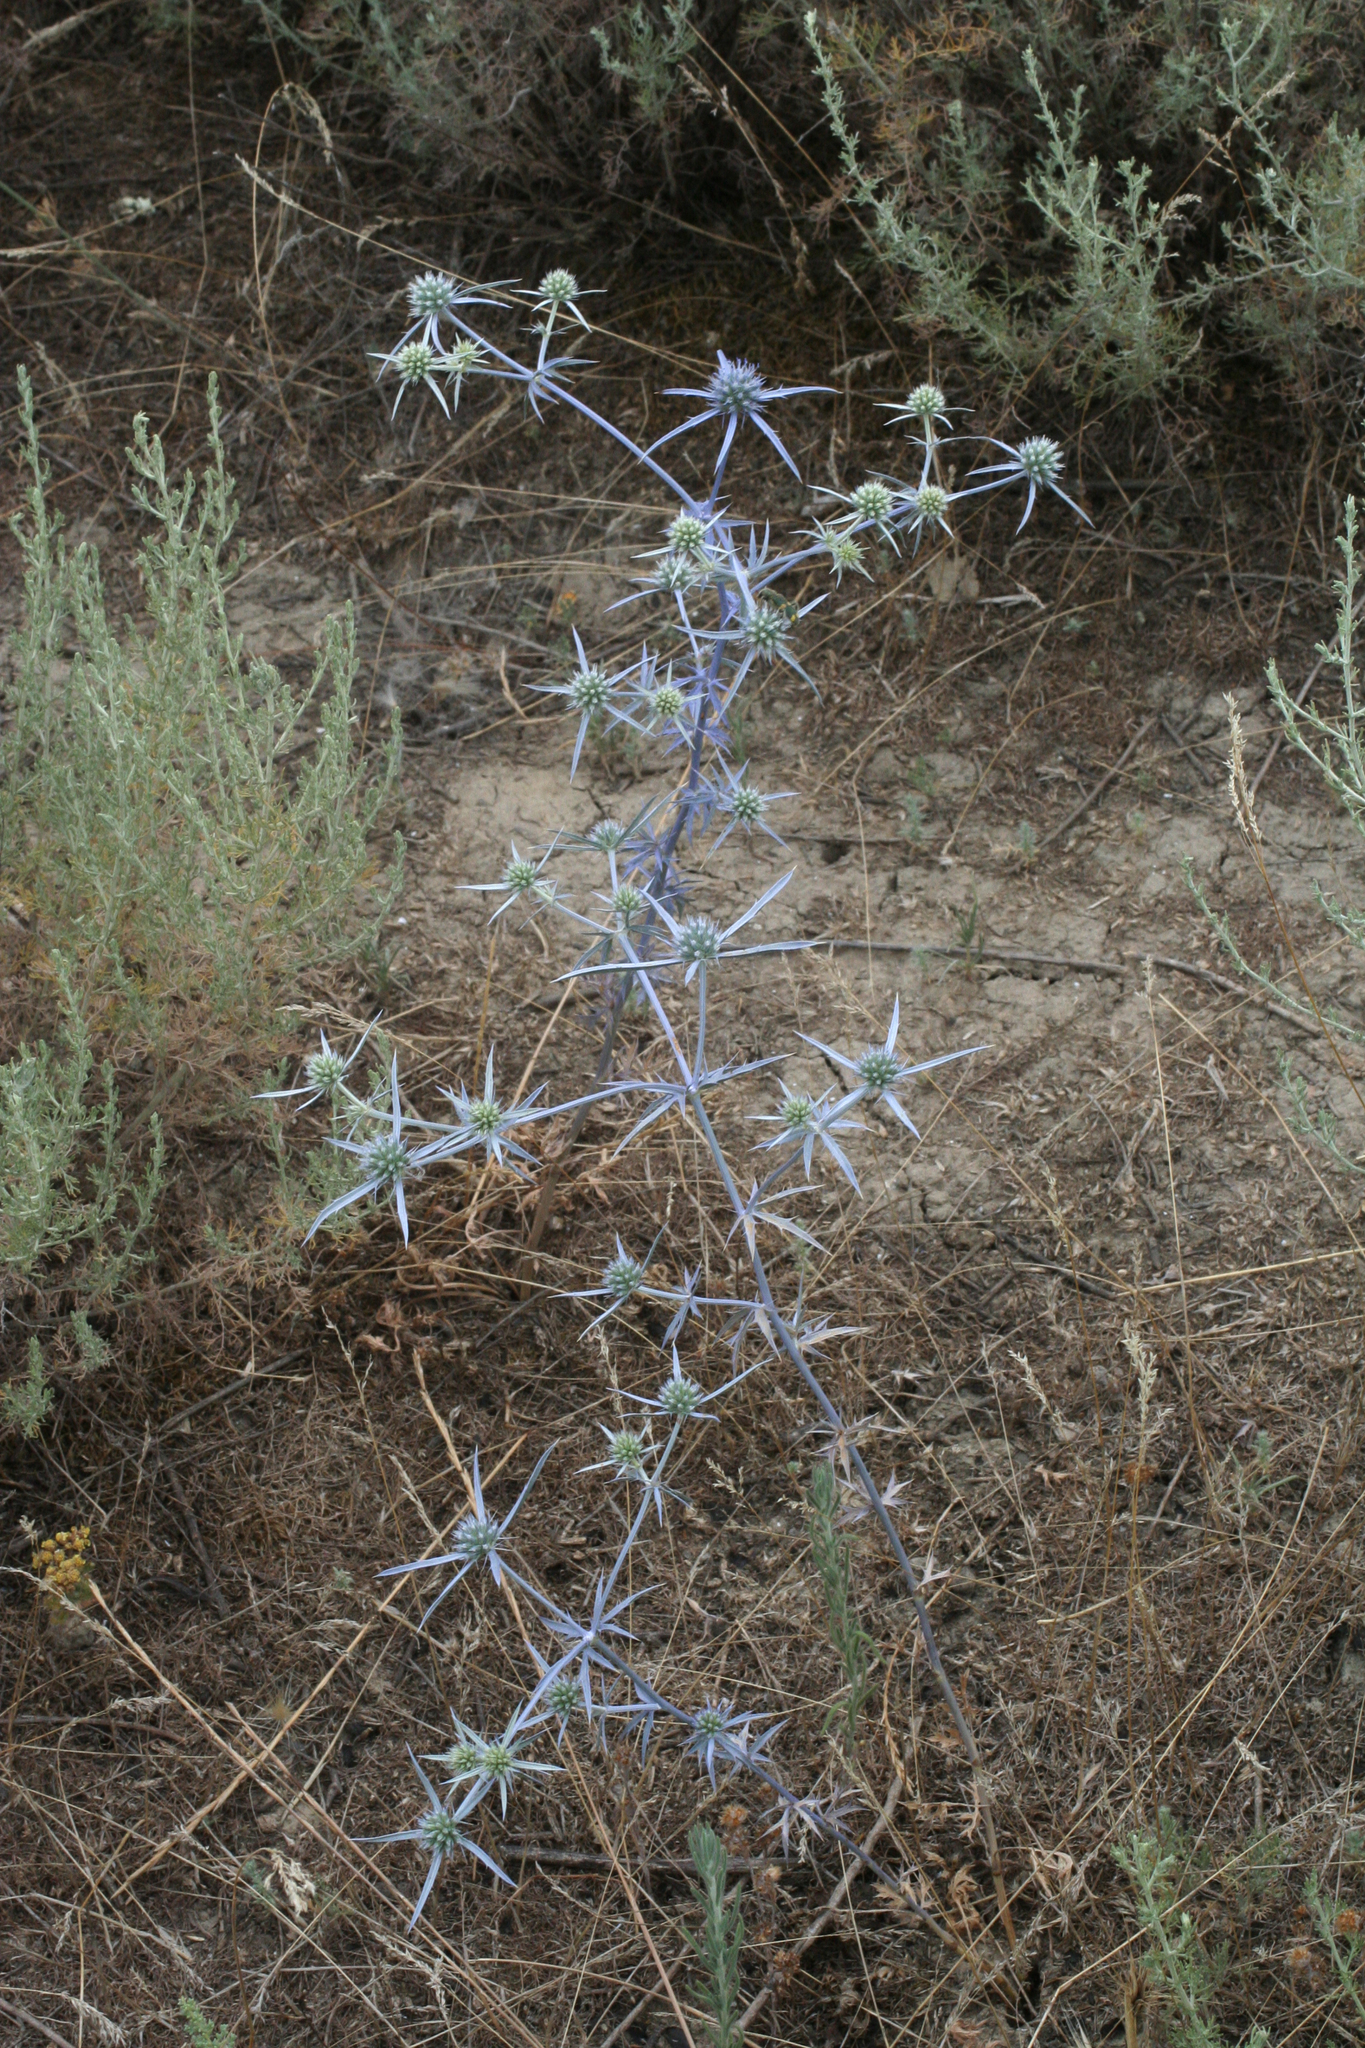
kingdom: Plantae
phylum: Tracheophyta
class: Magnoliopsida
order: Apiales
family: Apiaceae
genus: Eryngium
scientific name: Eryngium caeruleum
